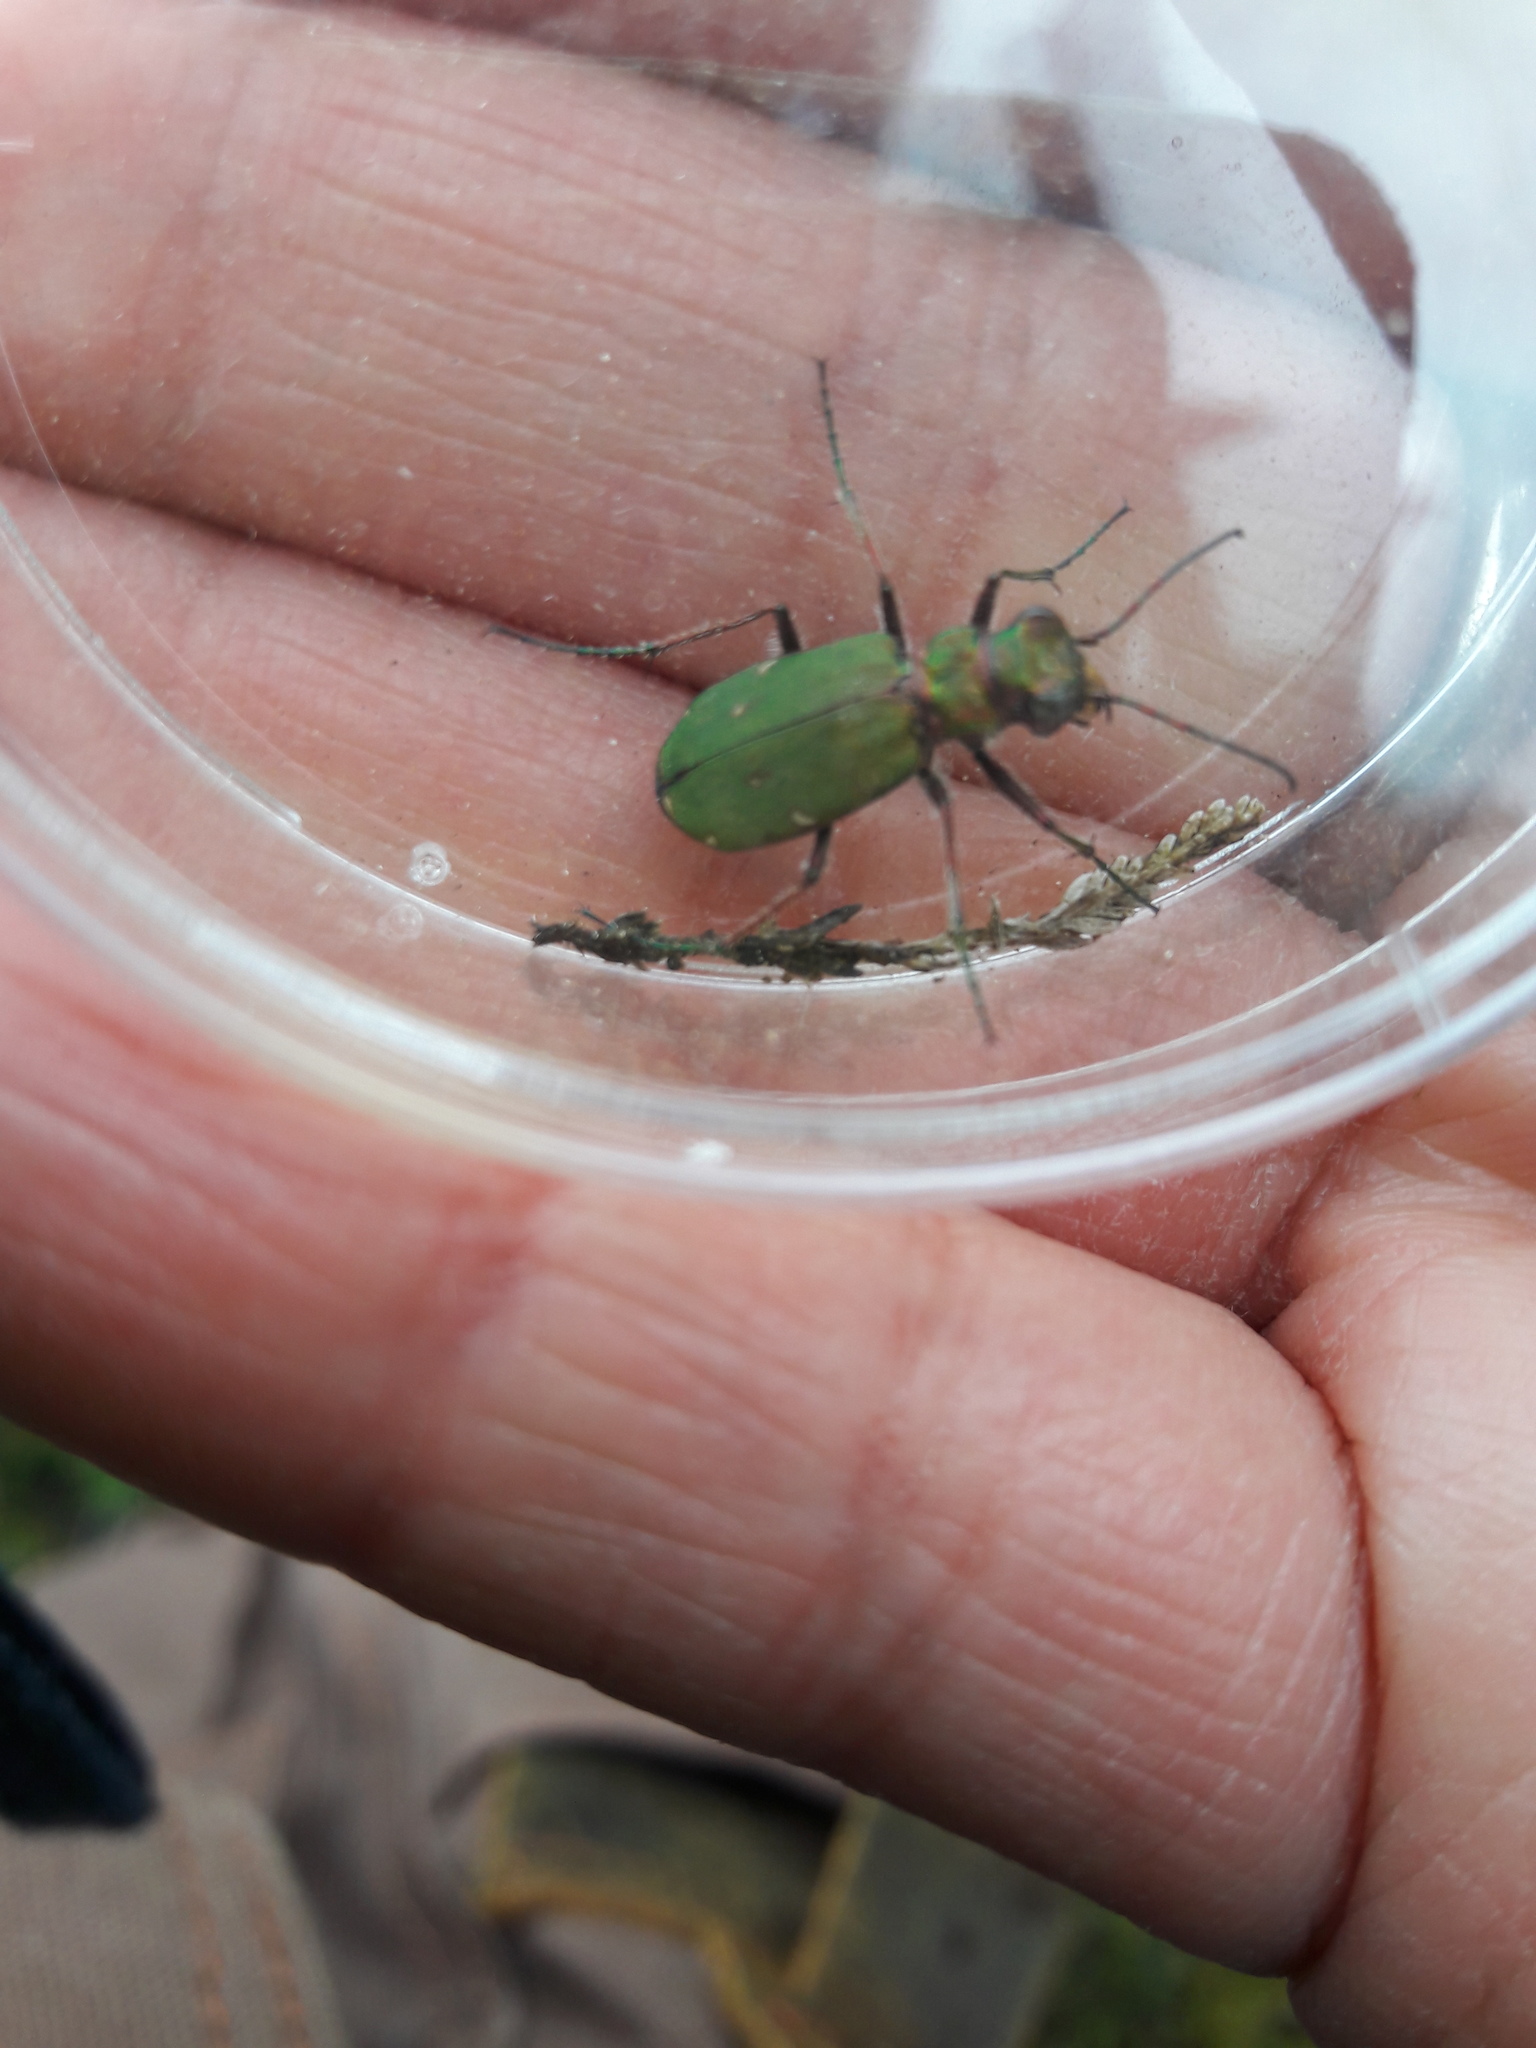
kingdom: Animalia
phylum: Arthropoda
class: Insecta
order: Coleoptera
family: Carabidae
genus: Cicindela
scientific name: Cicindela campestris
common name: Common tiger beetle
